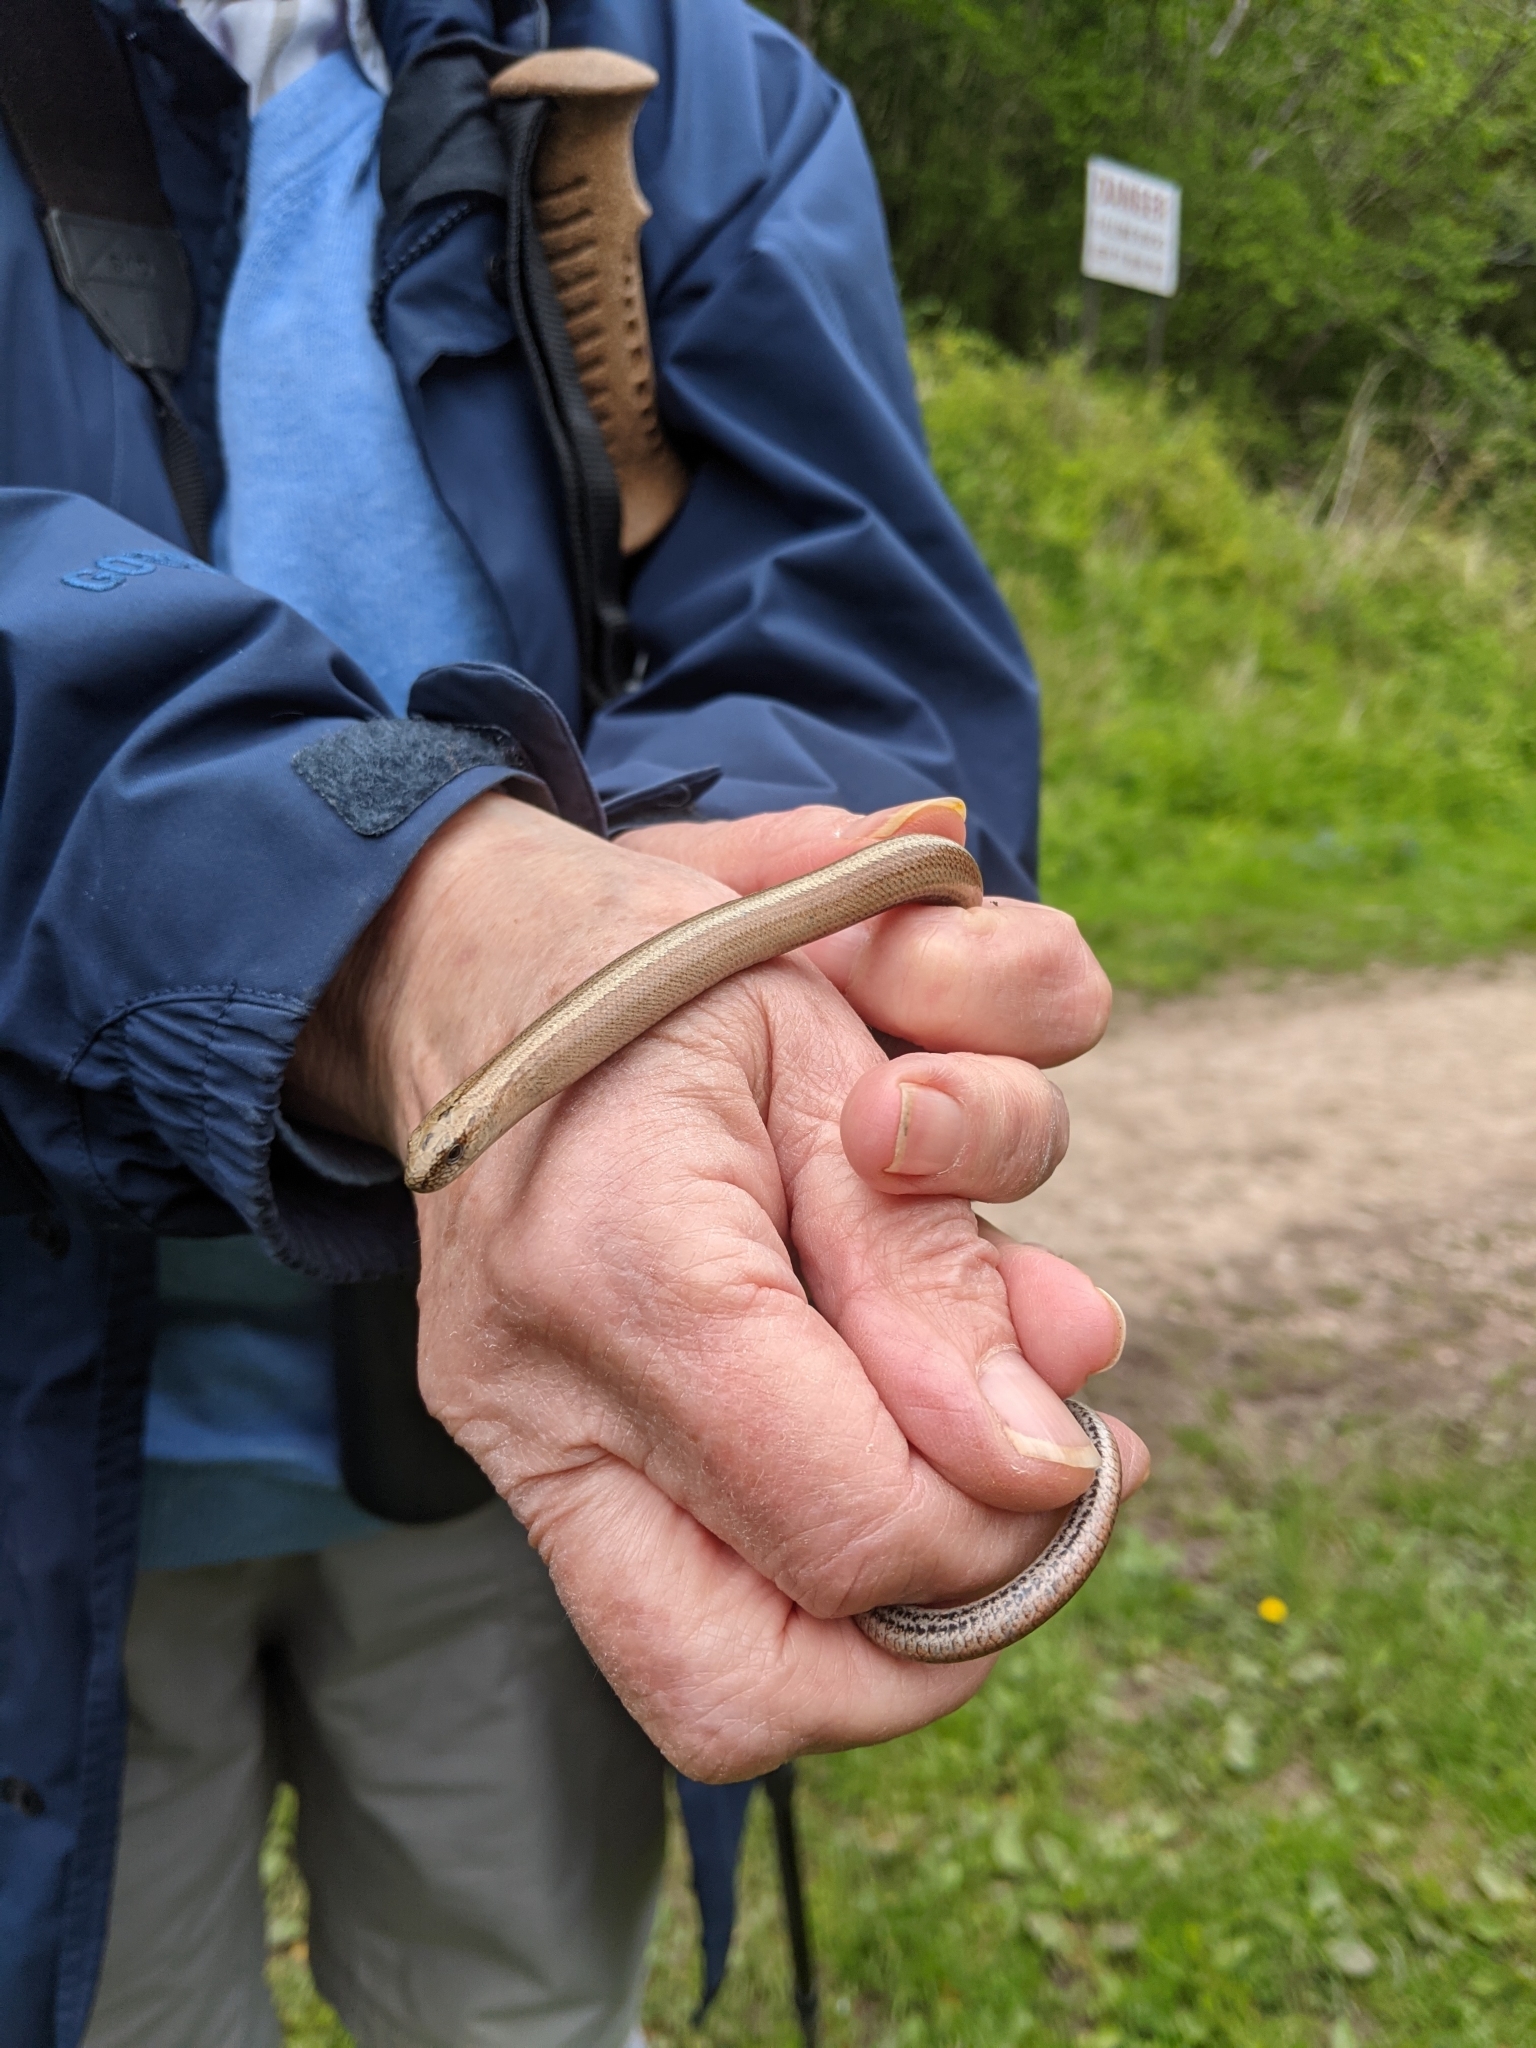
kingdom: Animalia
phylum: Chordata
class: Squamata
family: Anguidae
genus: Anguis
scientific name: Anguis fragilis
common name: Slow worm
